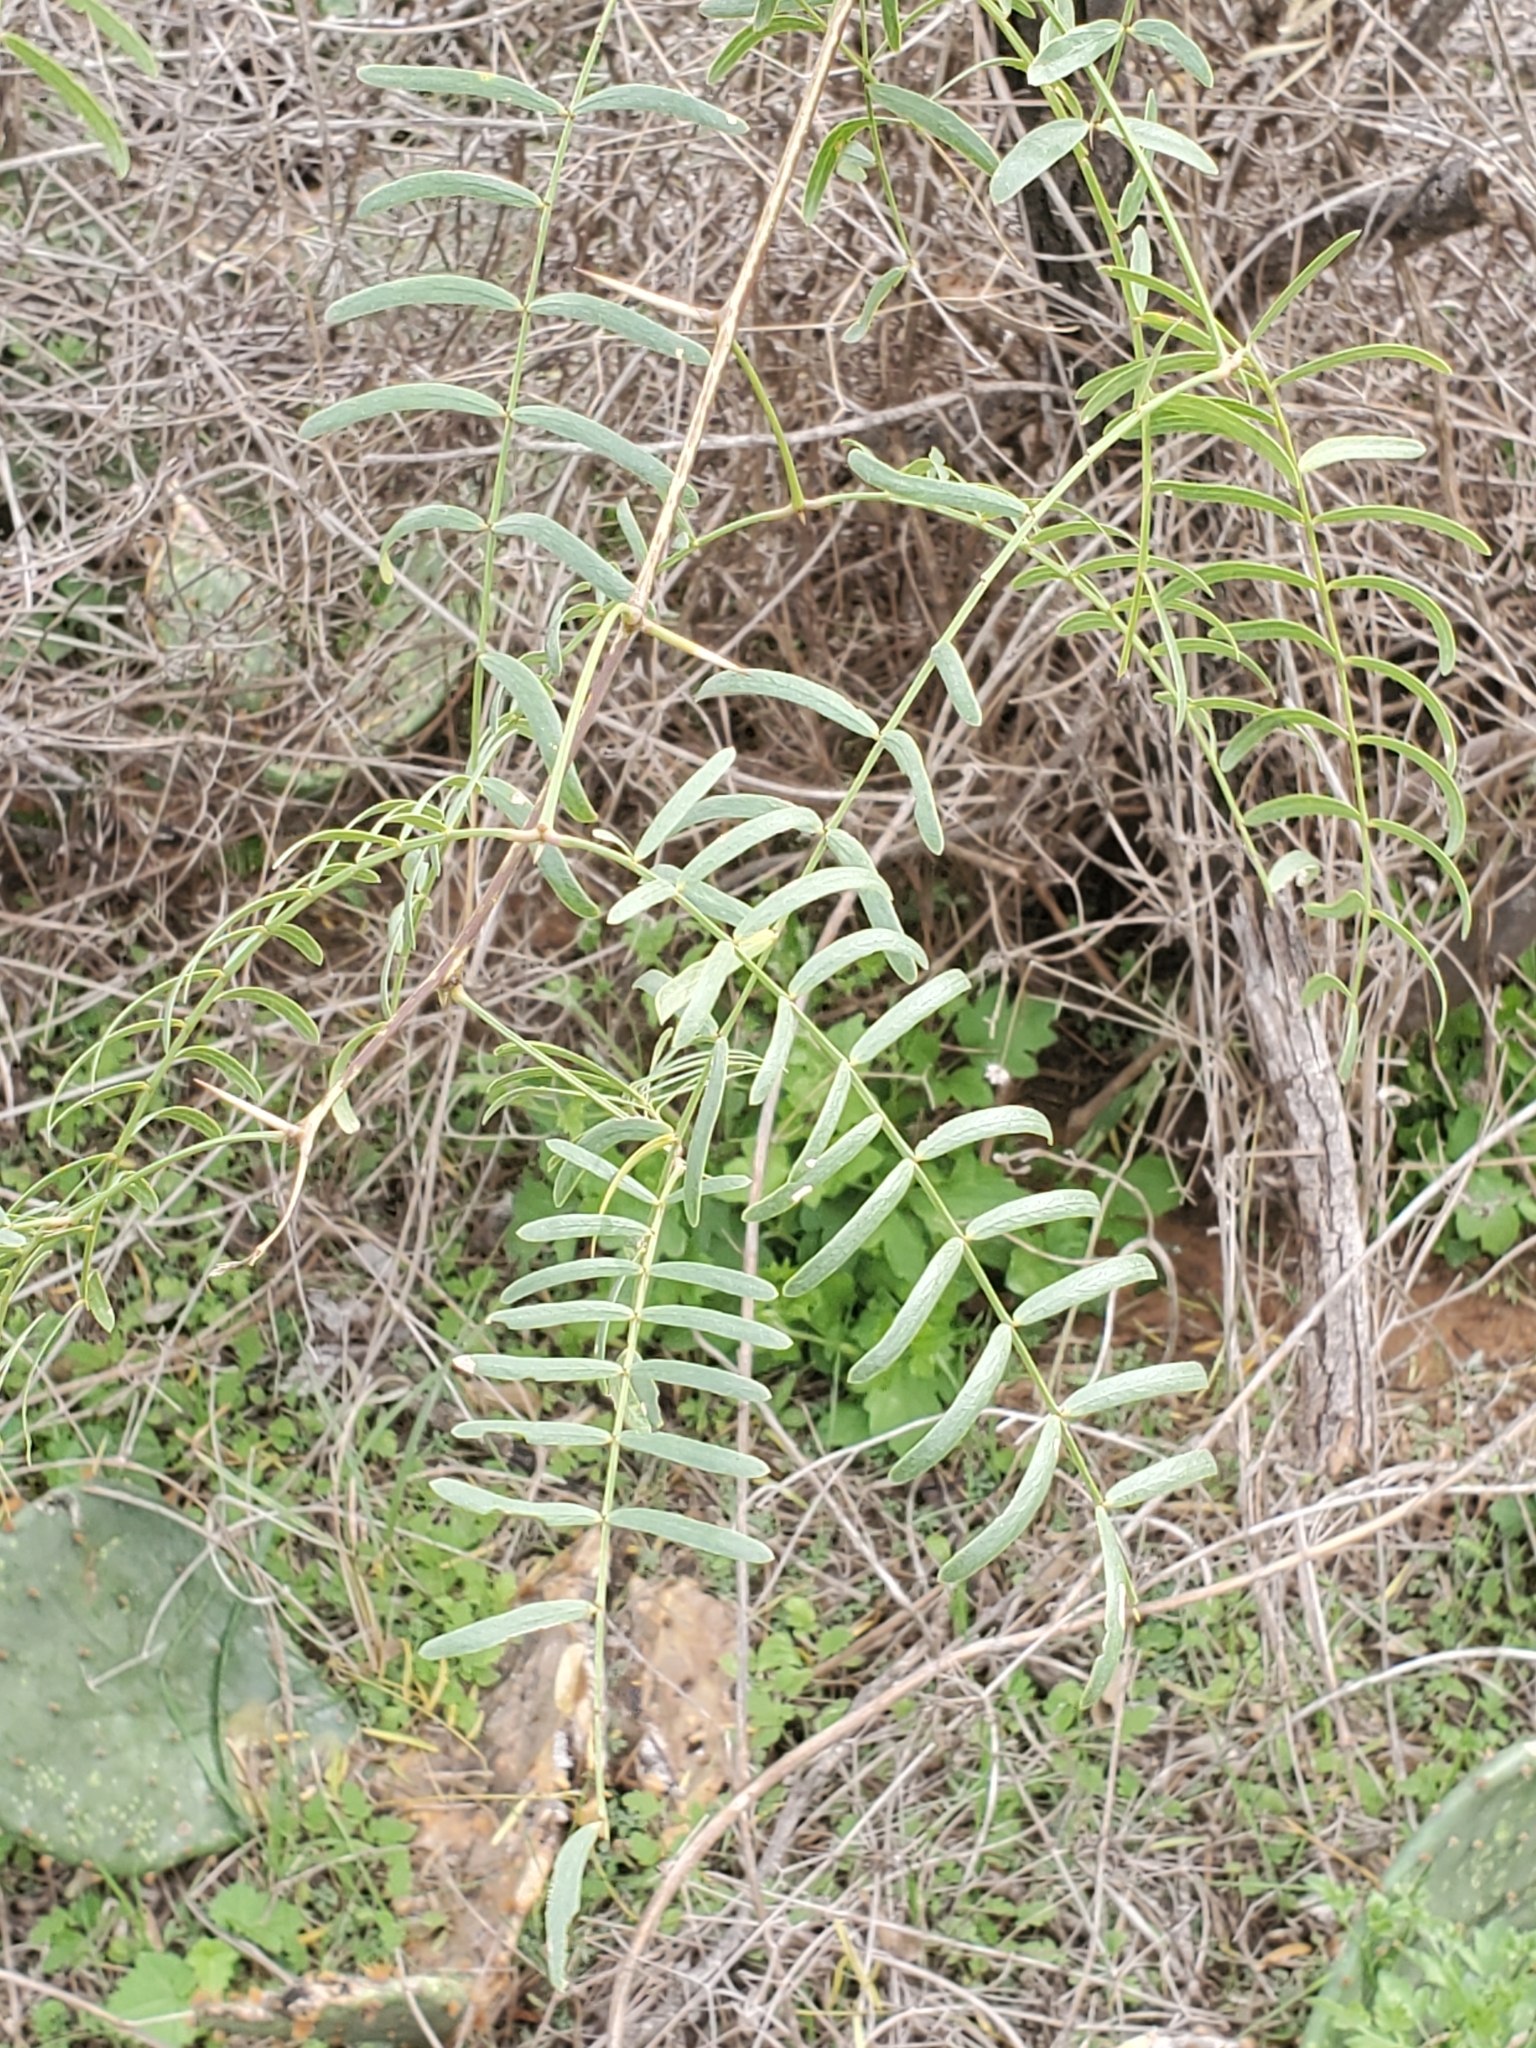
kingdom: Plantae
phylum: Tracheophyta
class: Magnoliopsida
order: Fabales
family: Fabaceae
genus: Prosopis
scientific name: Prosopis glandulosa
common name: Honey mesquite
